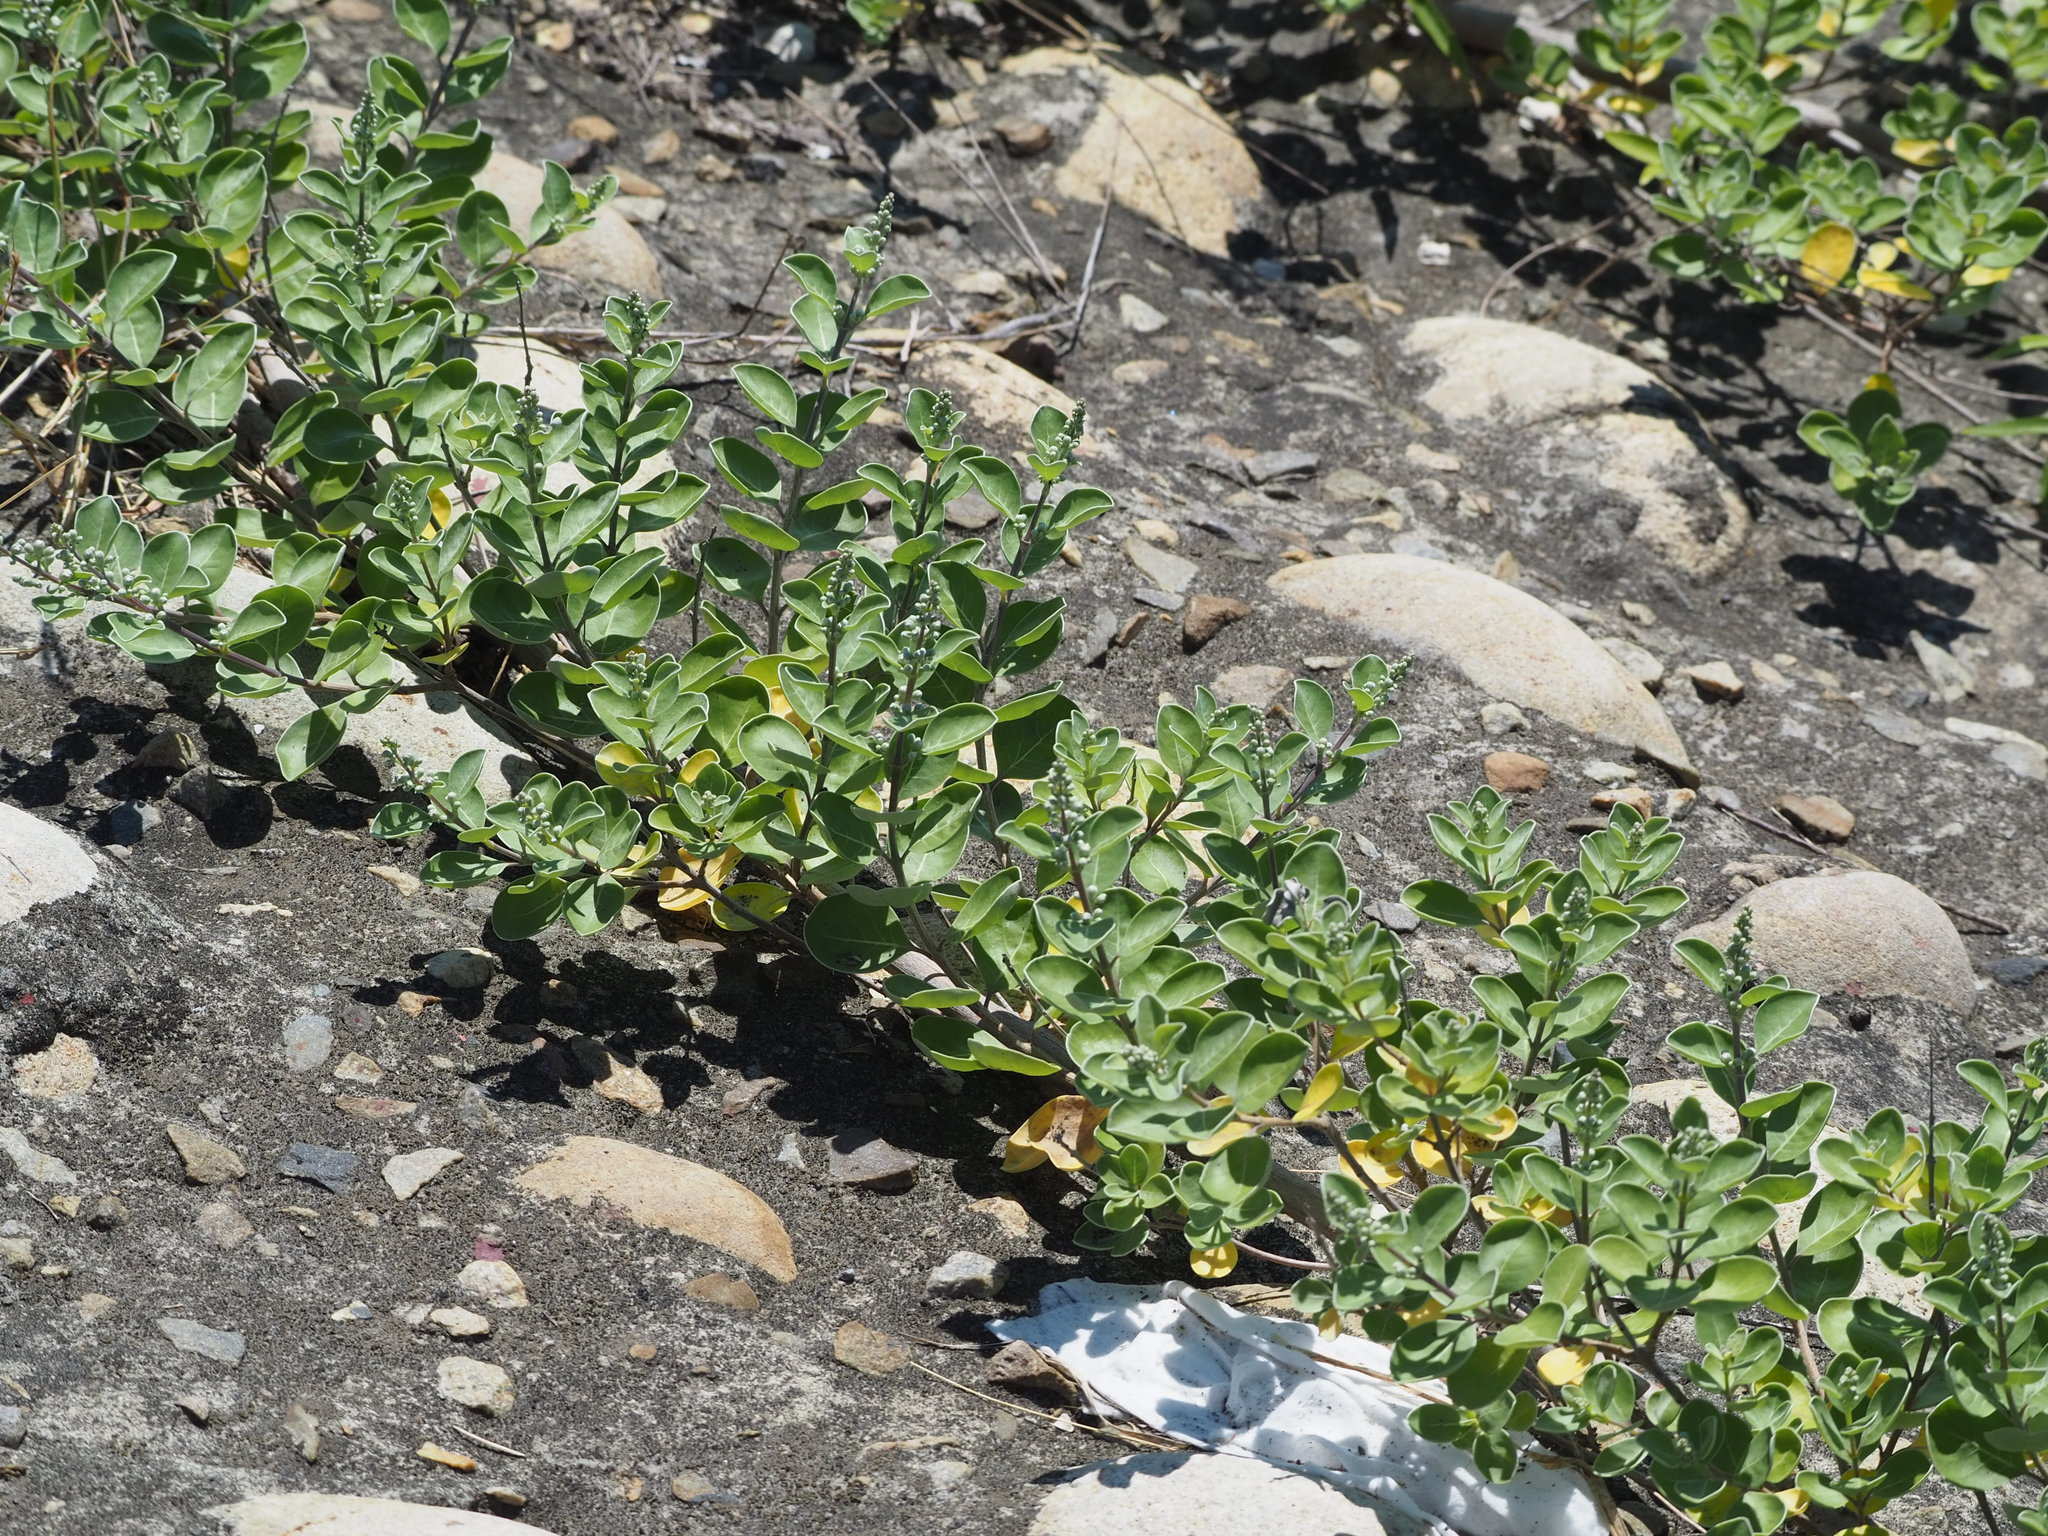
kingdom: Plantae
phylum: Tracheophyta
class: Magnoliopsida
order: Lamiales
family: Lamiaceae
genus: Vitex
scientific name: Vitex rotundifolia
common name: Beach vitex
